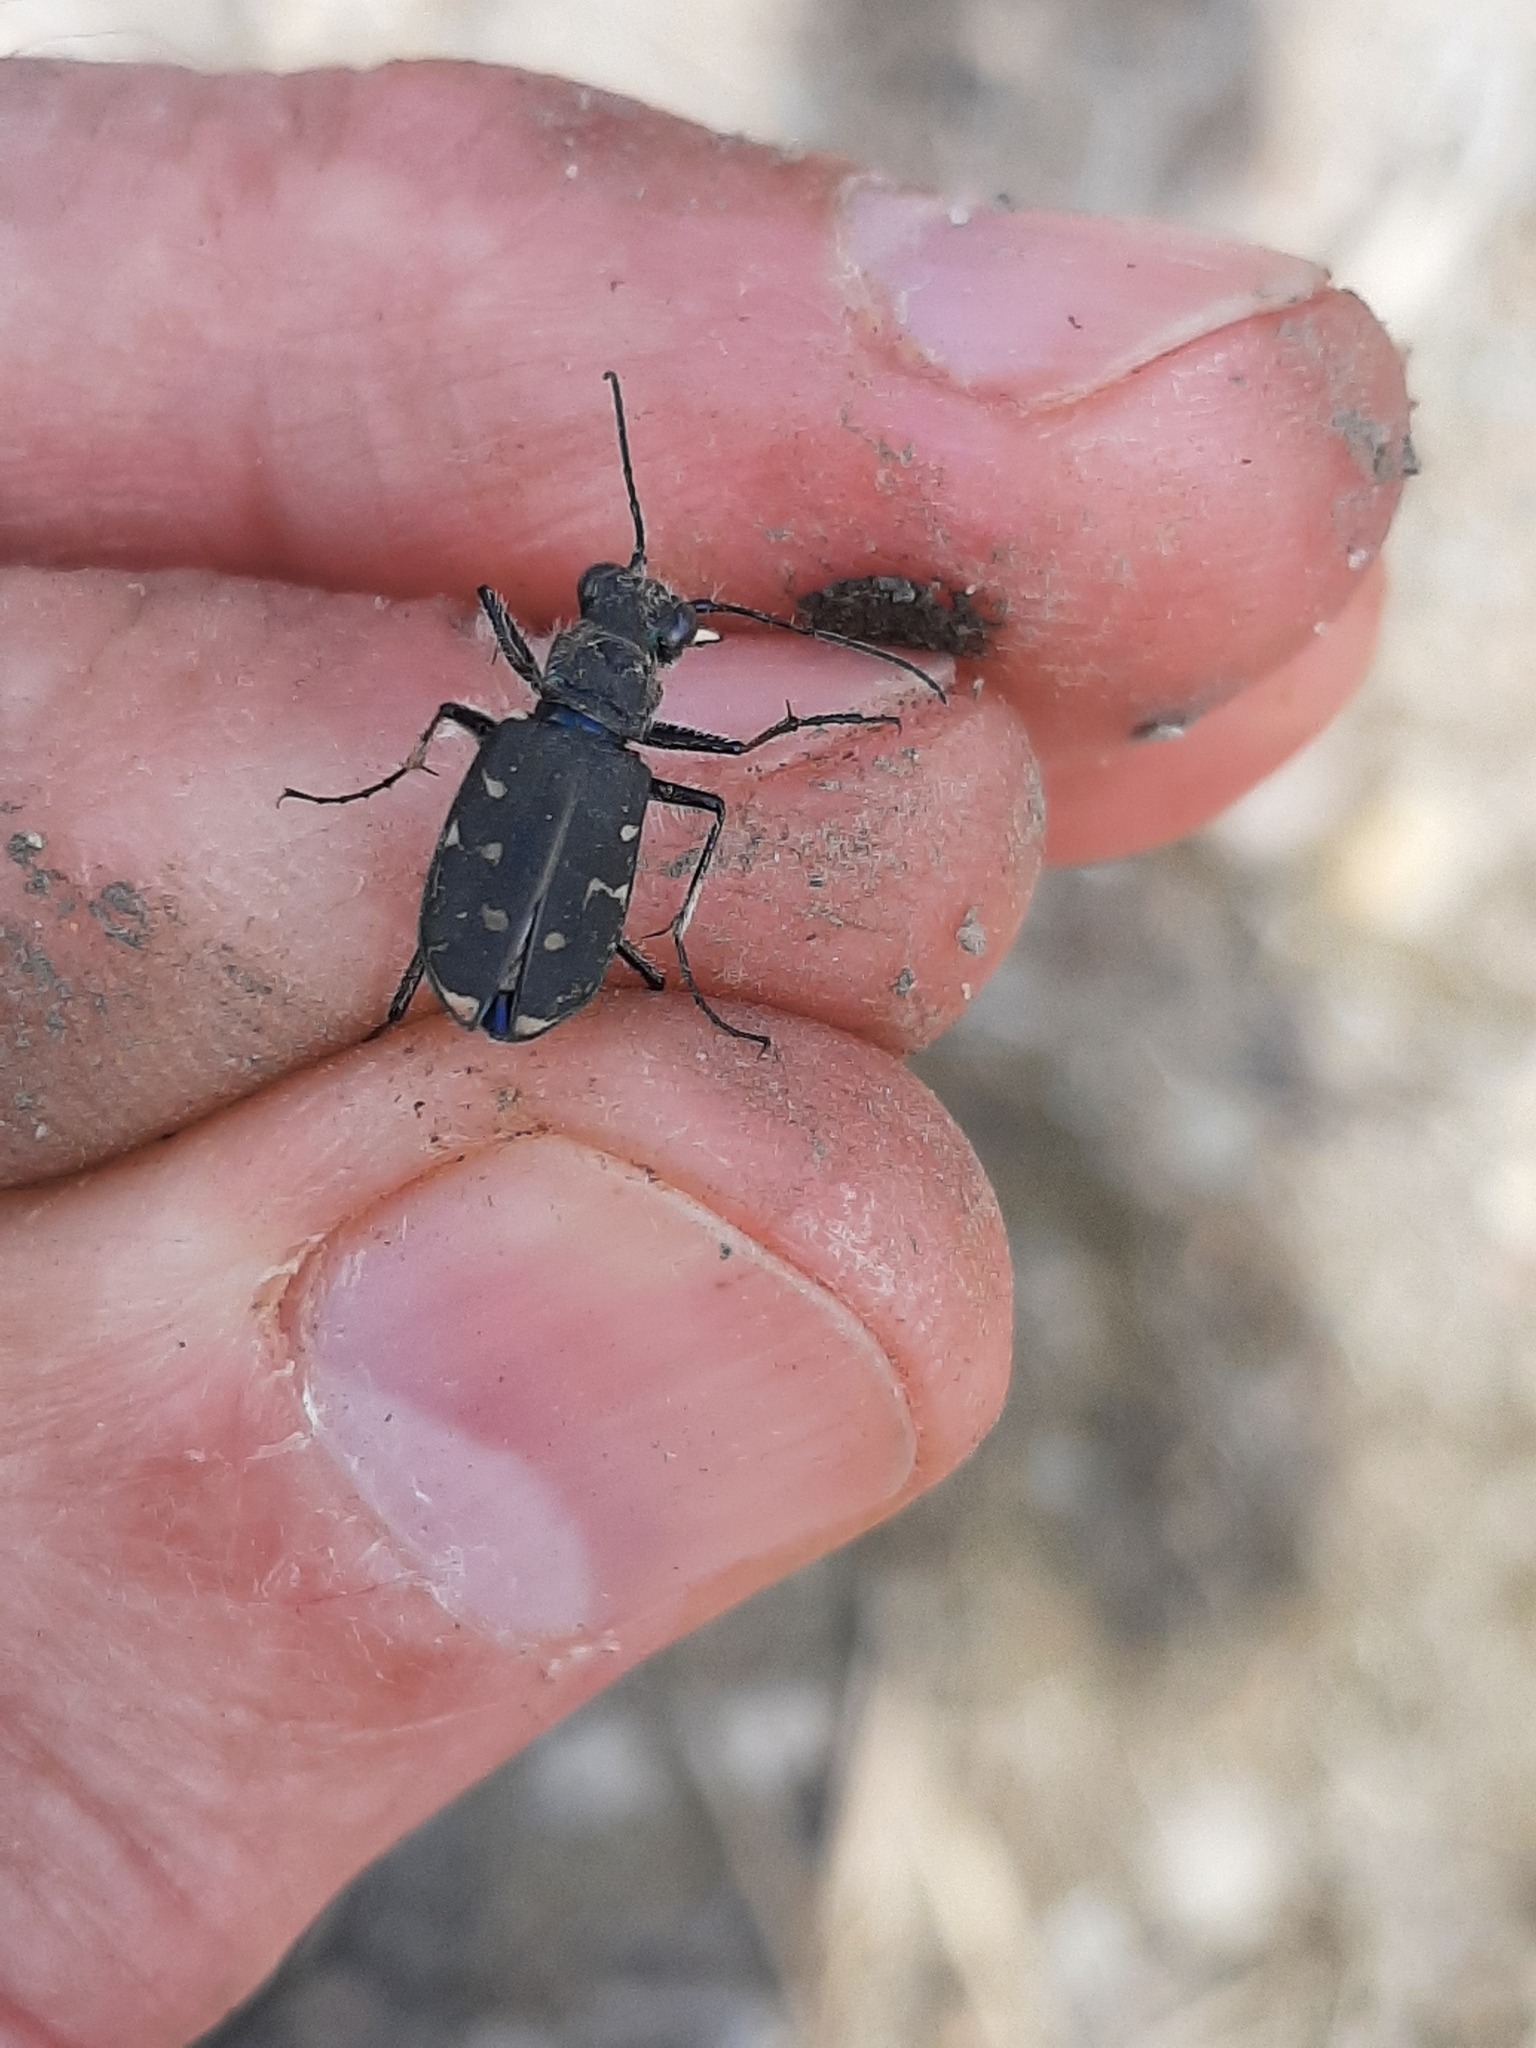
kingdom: Animalia
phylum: Arthropoda
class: Insecta
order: Coleoptera
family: Carabidae
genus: Cicindela
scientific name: Cicindela duodecimguttata
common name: Twelve-spotted tiger beetle
